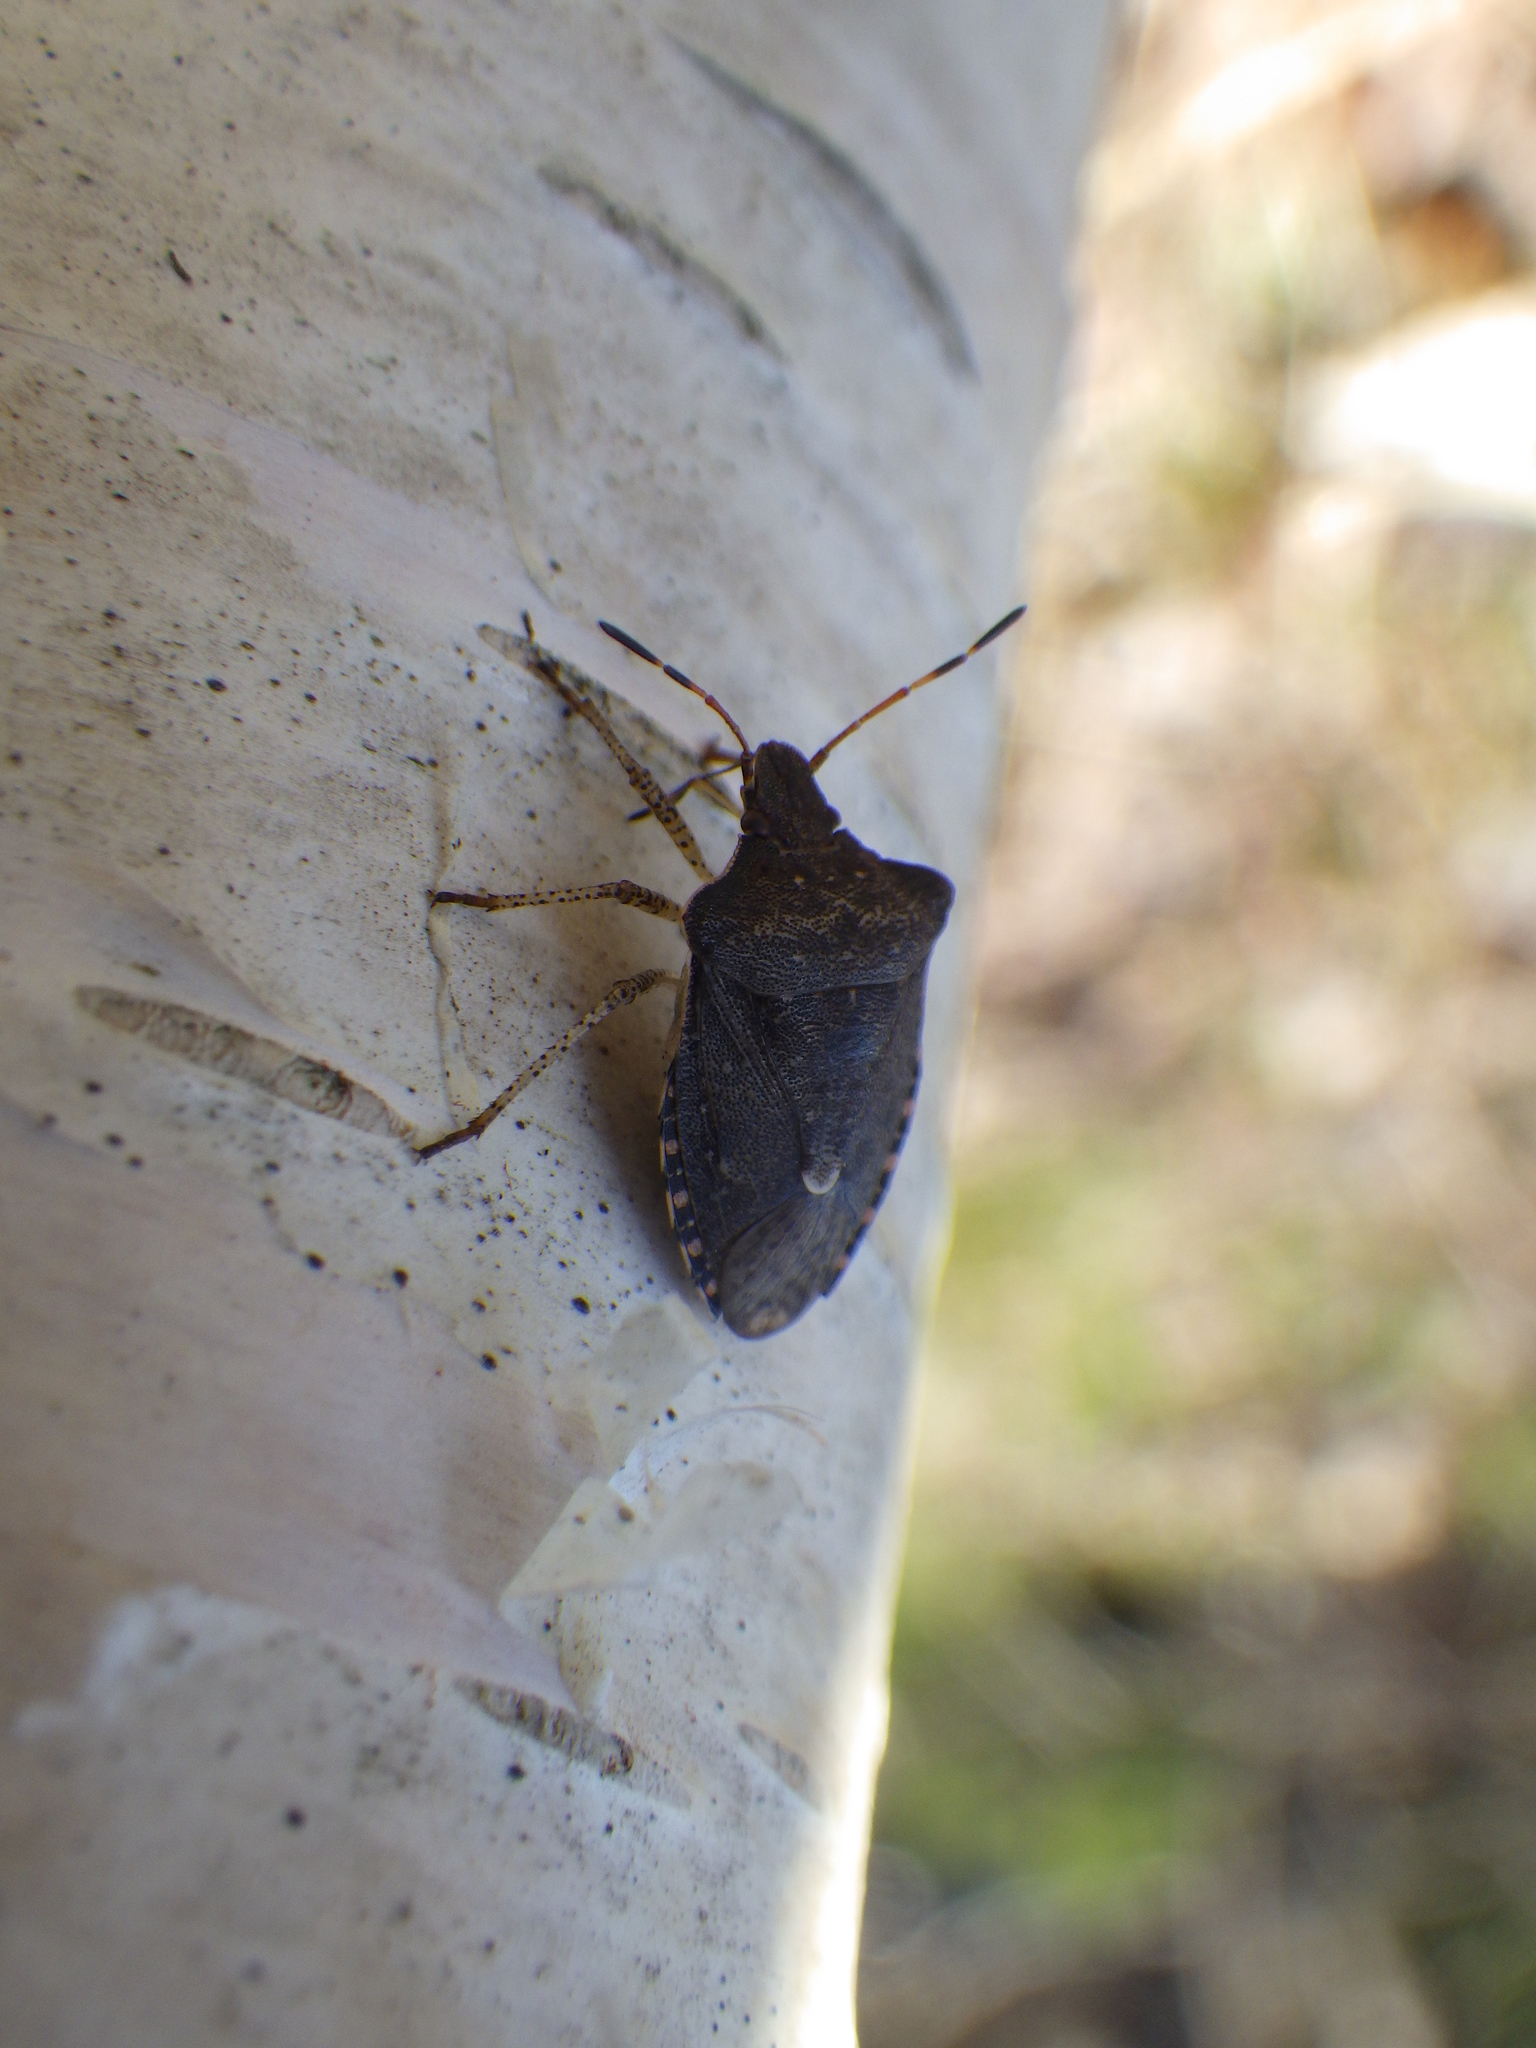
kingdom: Animalia
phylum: Arthropoda
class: Insecta
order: Hemiptera
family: Pentatomidae
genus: Euschistus
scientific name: Euschistus tristigmus
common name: Dusky stink bug
